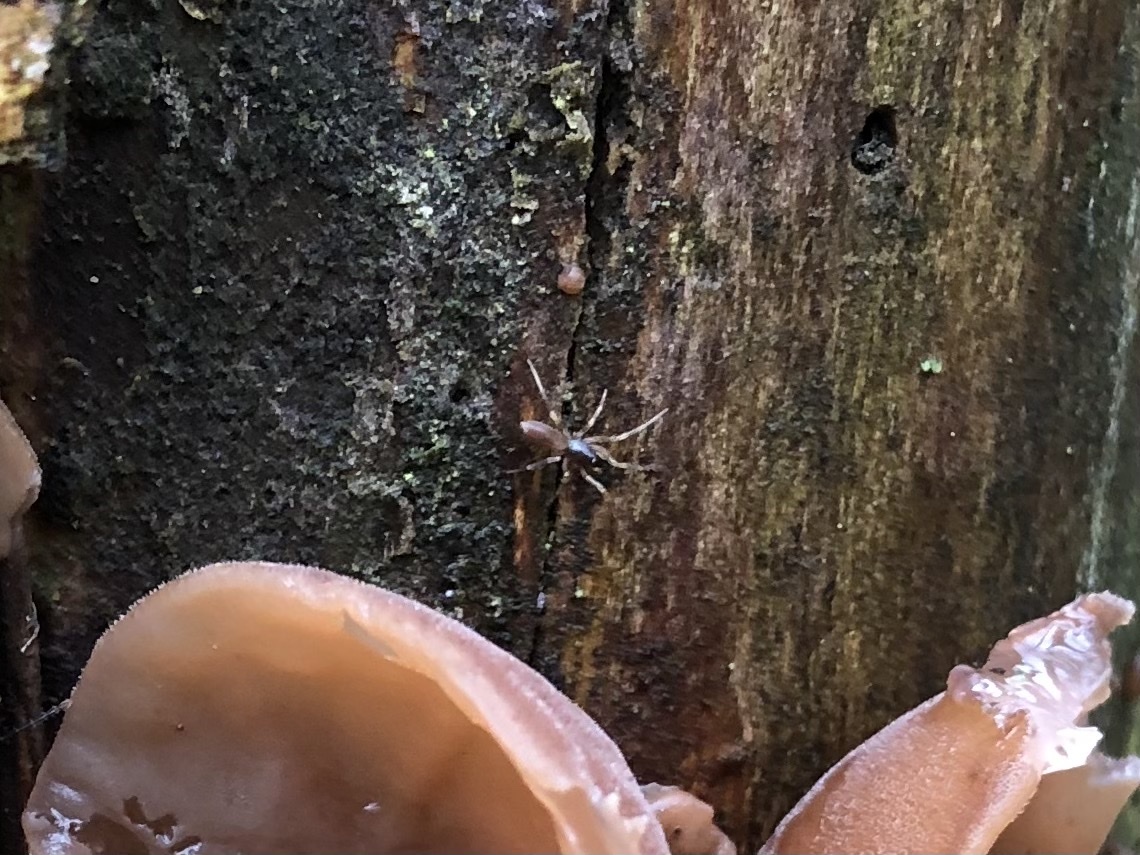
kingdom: Animalia
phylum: Arthropoda
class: Arachnida
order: Araneae
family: Dysderidae
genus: Harpactea
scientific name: Harpactea hombergi
